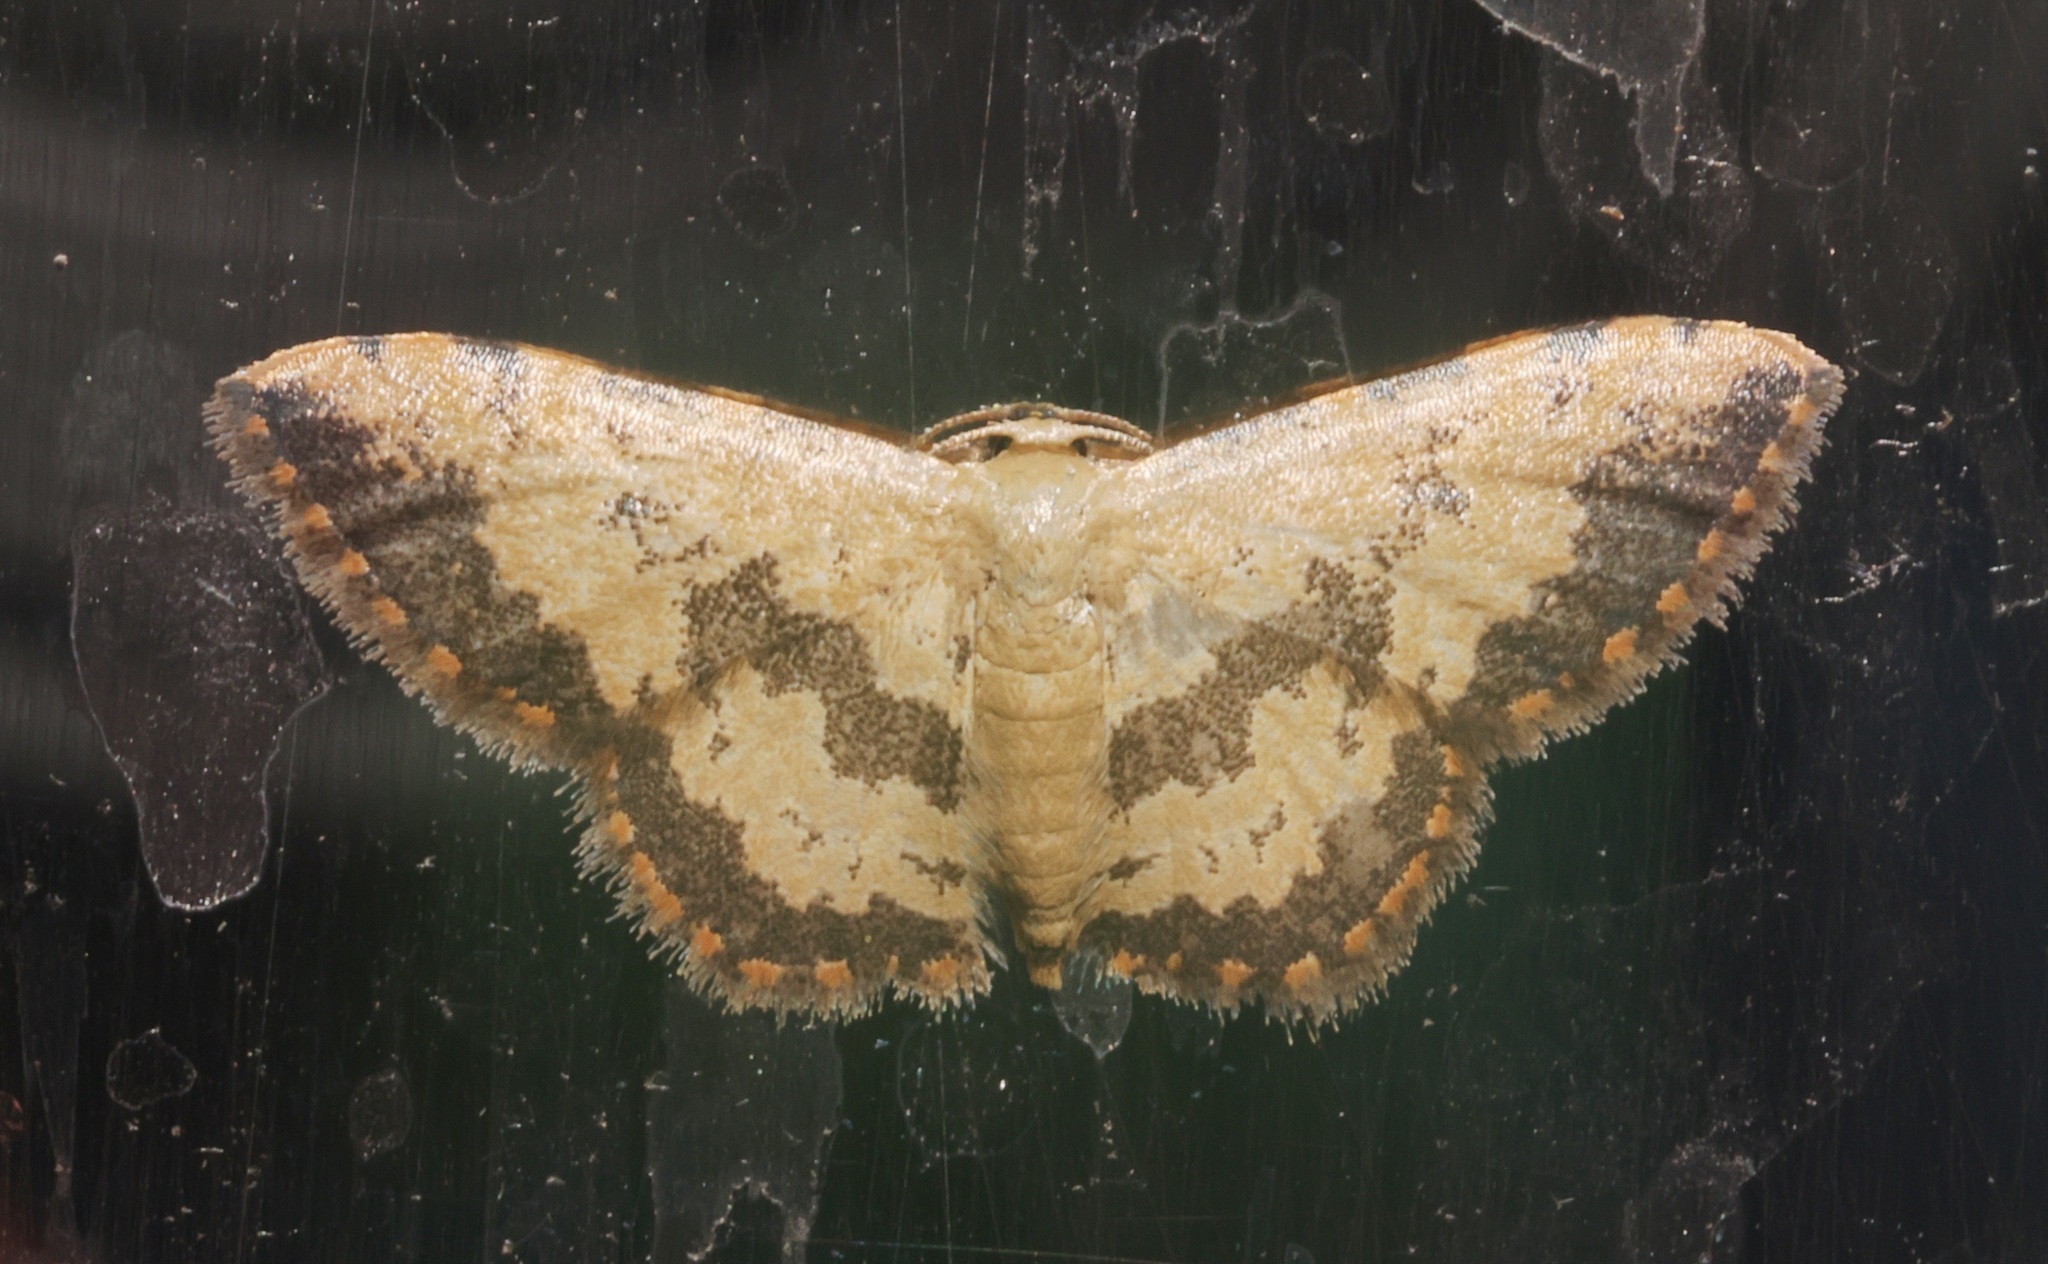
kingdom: Animalia
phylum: Arthropoda
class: Insecta
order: Lepidoptera
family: Geometridae
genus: Idaea
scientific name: Idaea phaeocrossa
